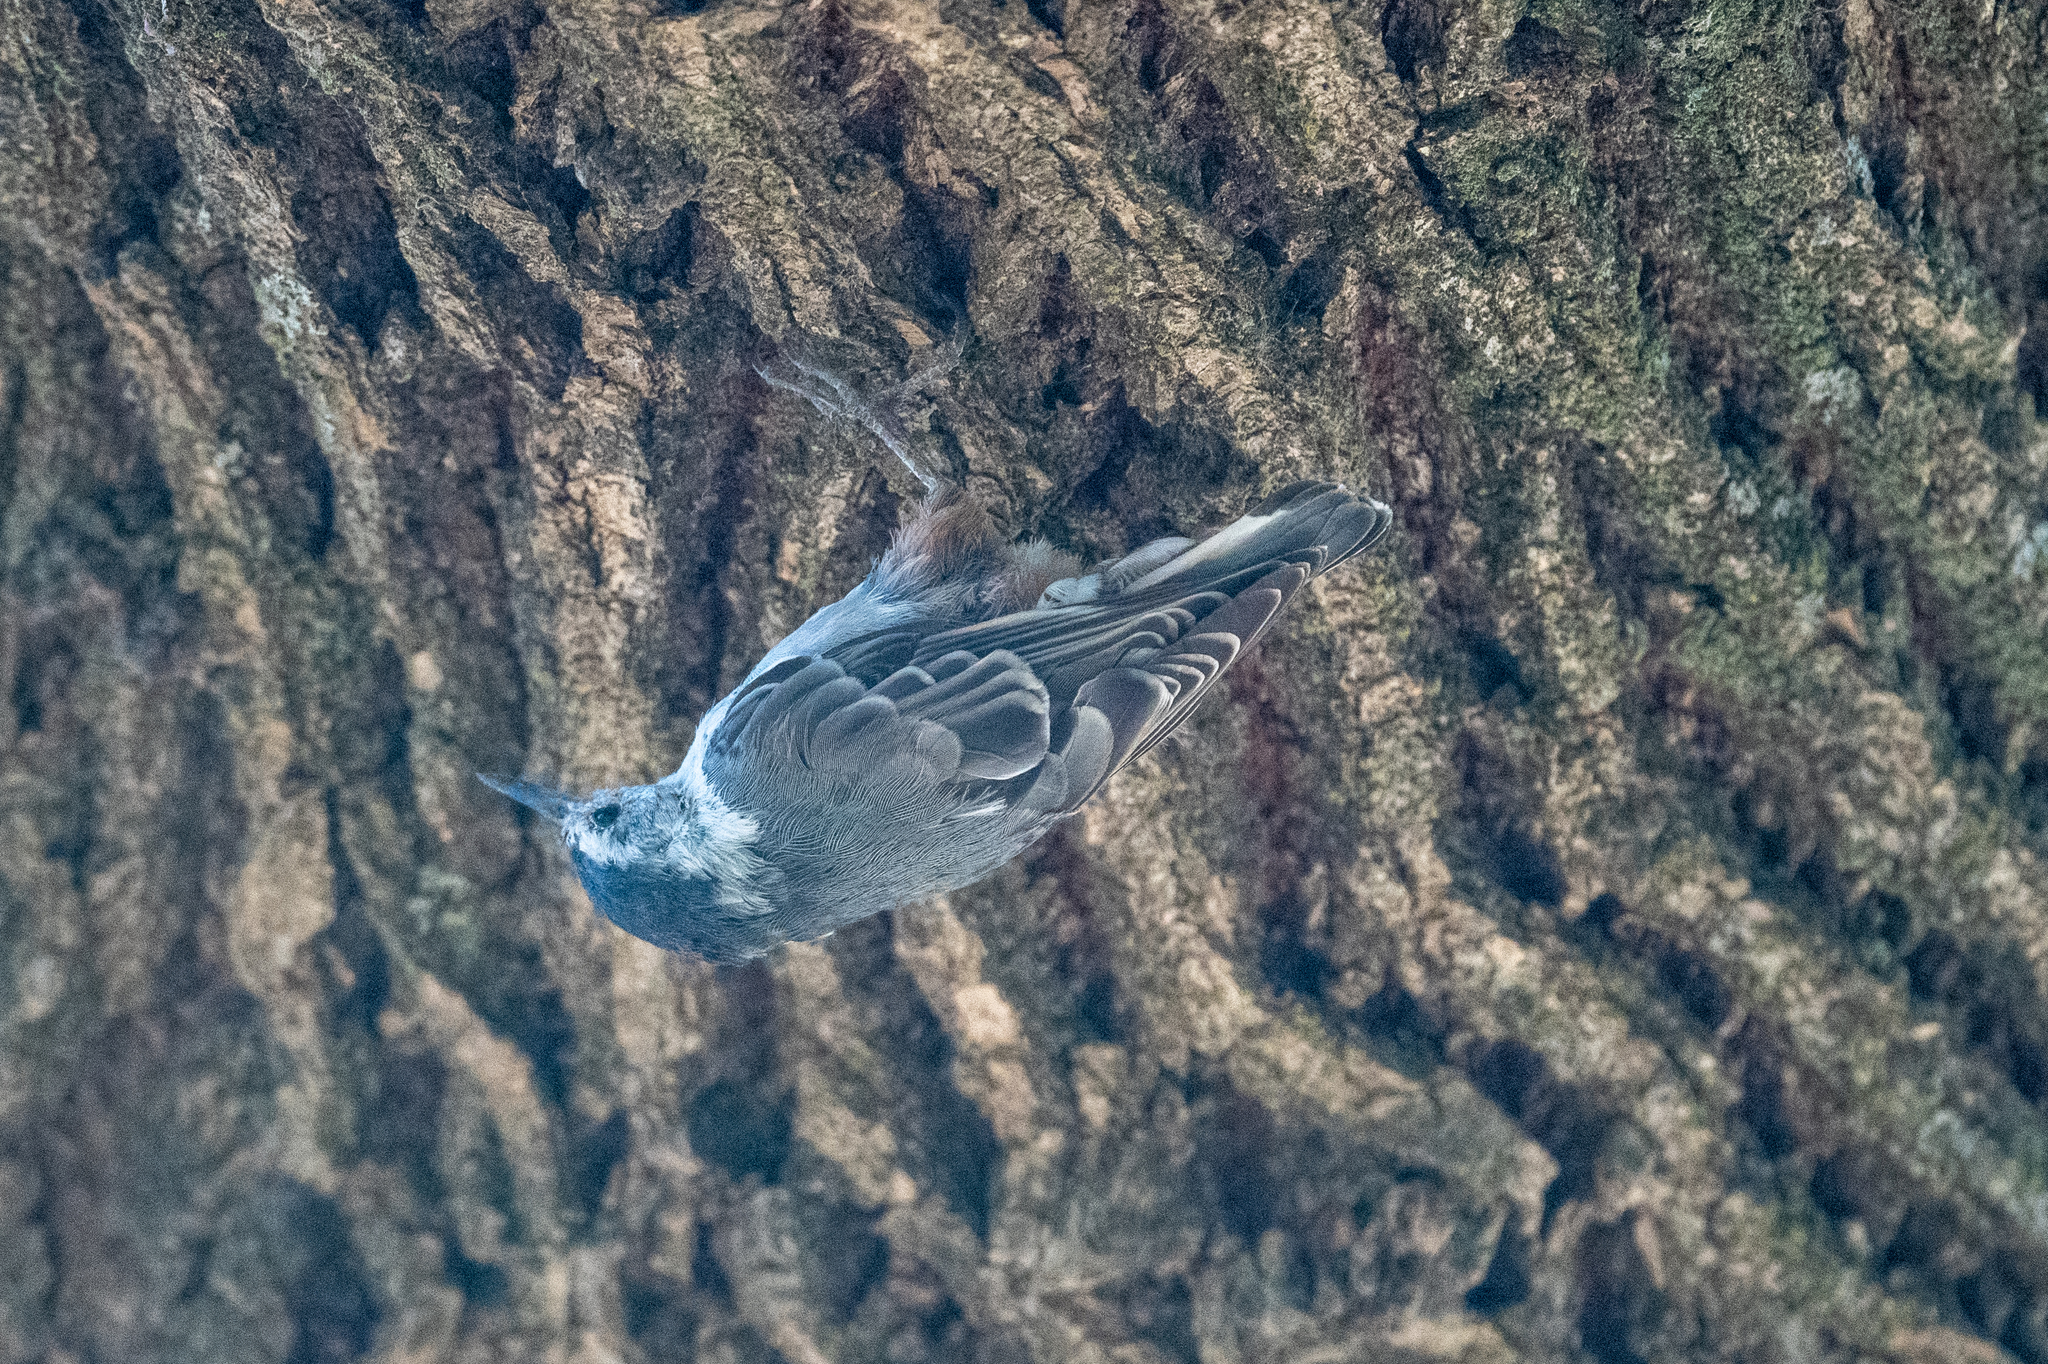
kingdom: Animalia
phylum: Chordata
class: Aves
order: Passeriformes
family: Sittidae
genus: Sitta
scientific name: Sitta carolinensis
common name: White-breasted nuthatch
